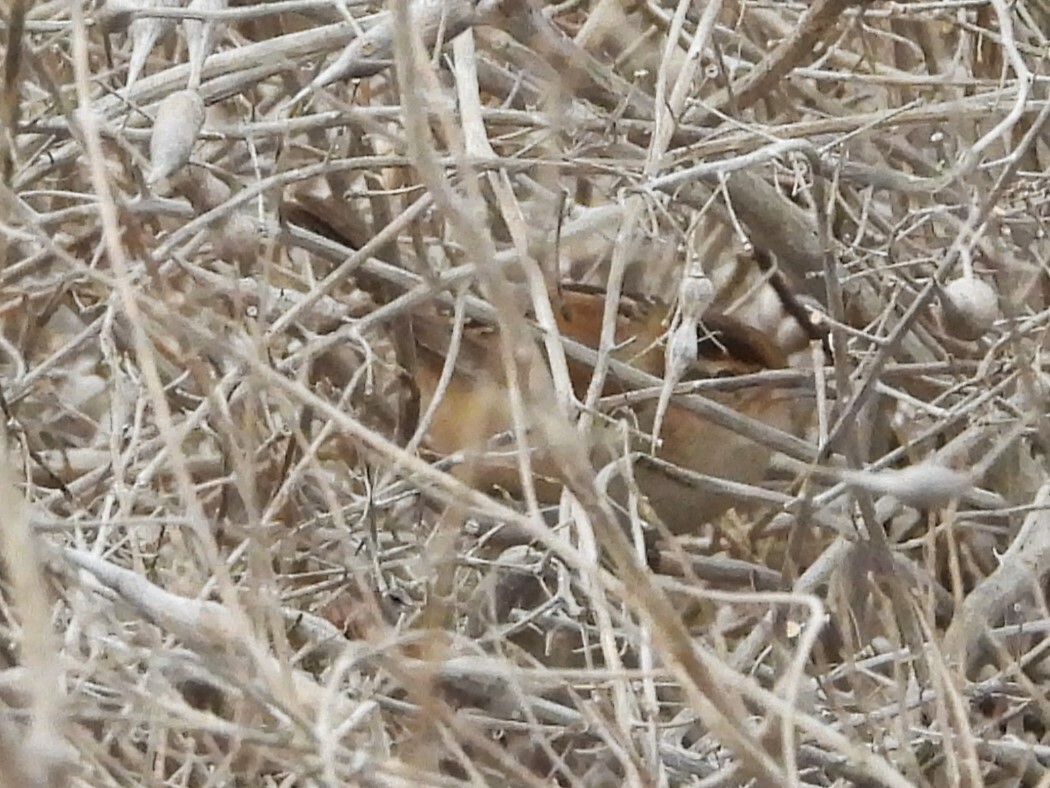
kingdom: Animalia
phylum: Chordata
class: Aves
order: Passeriformes
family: Troglodytidae
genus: Cistothorus
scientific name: Cistothorus palustris
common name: Marsh wren
